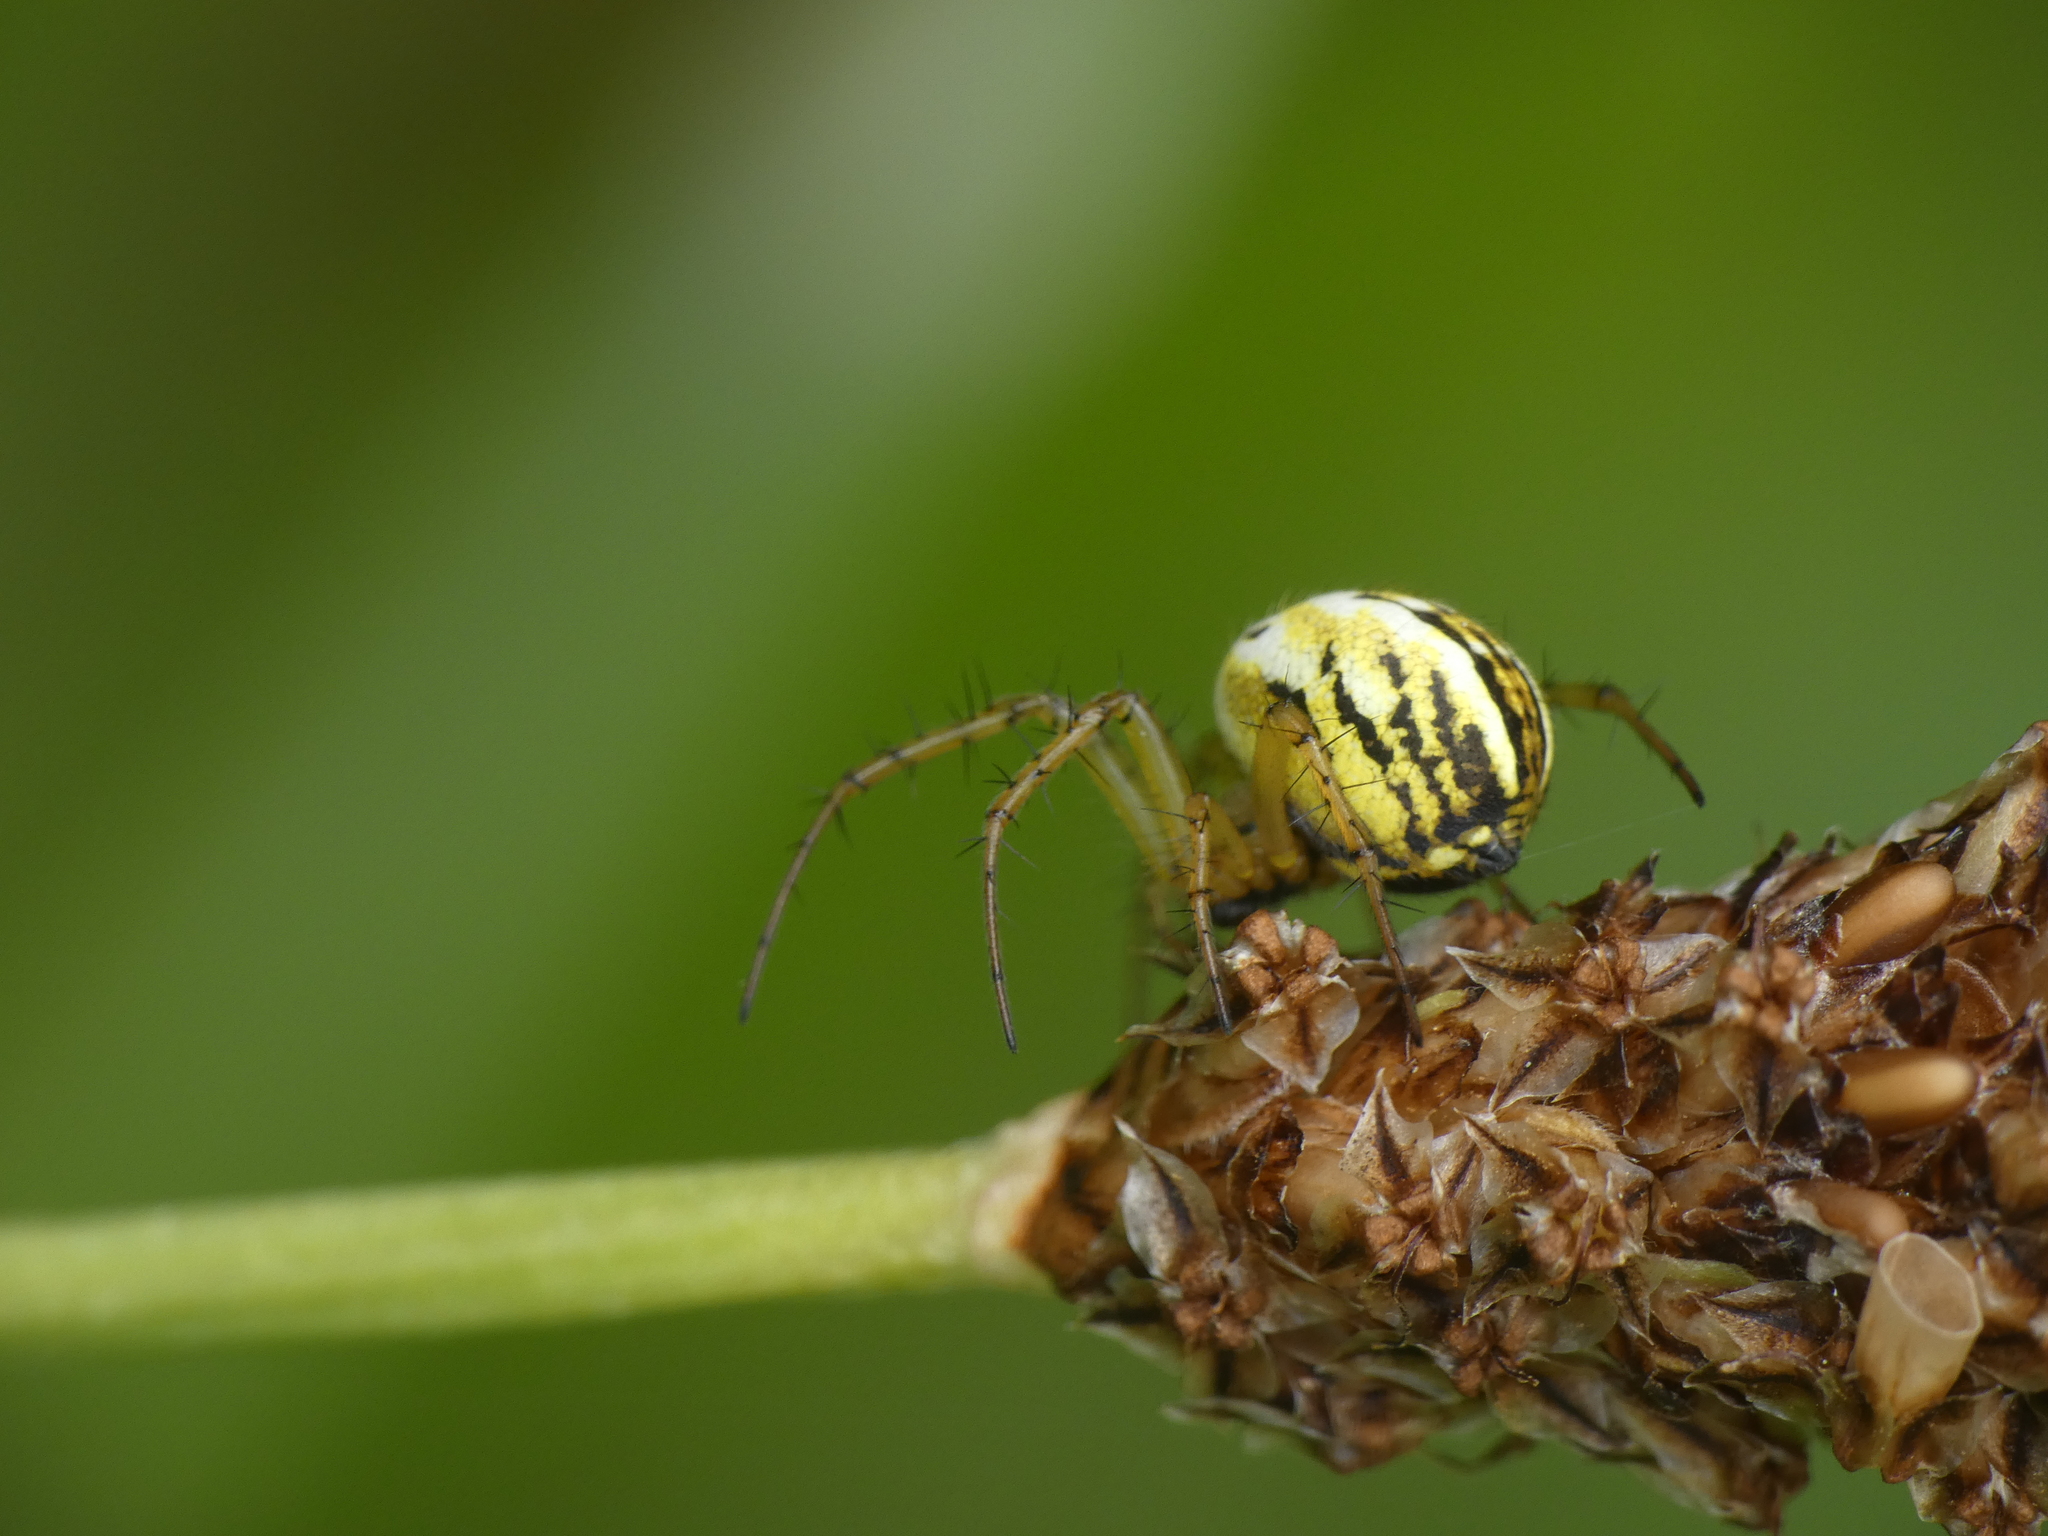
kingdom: Animalia
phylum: Arthropoda
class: Arachnida
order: Araneae
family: Araneidae
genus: Mangora
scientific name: Mangora acalypha
